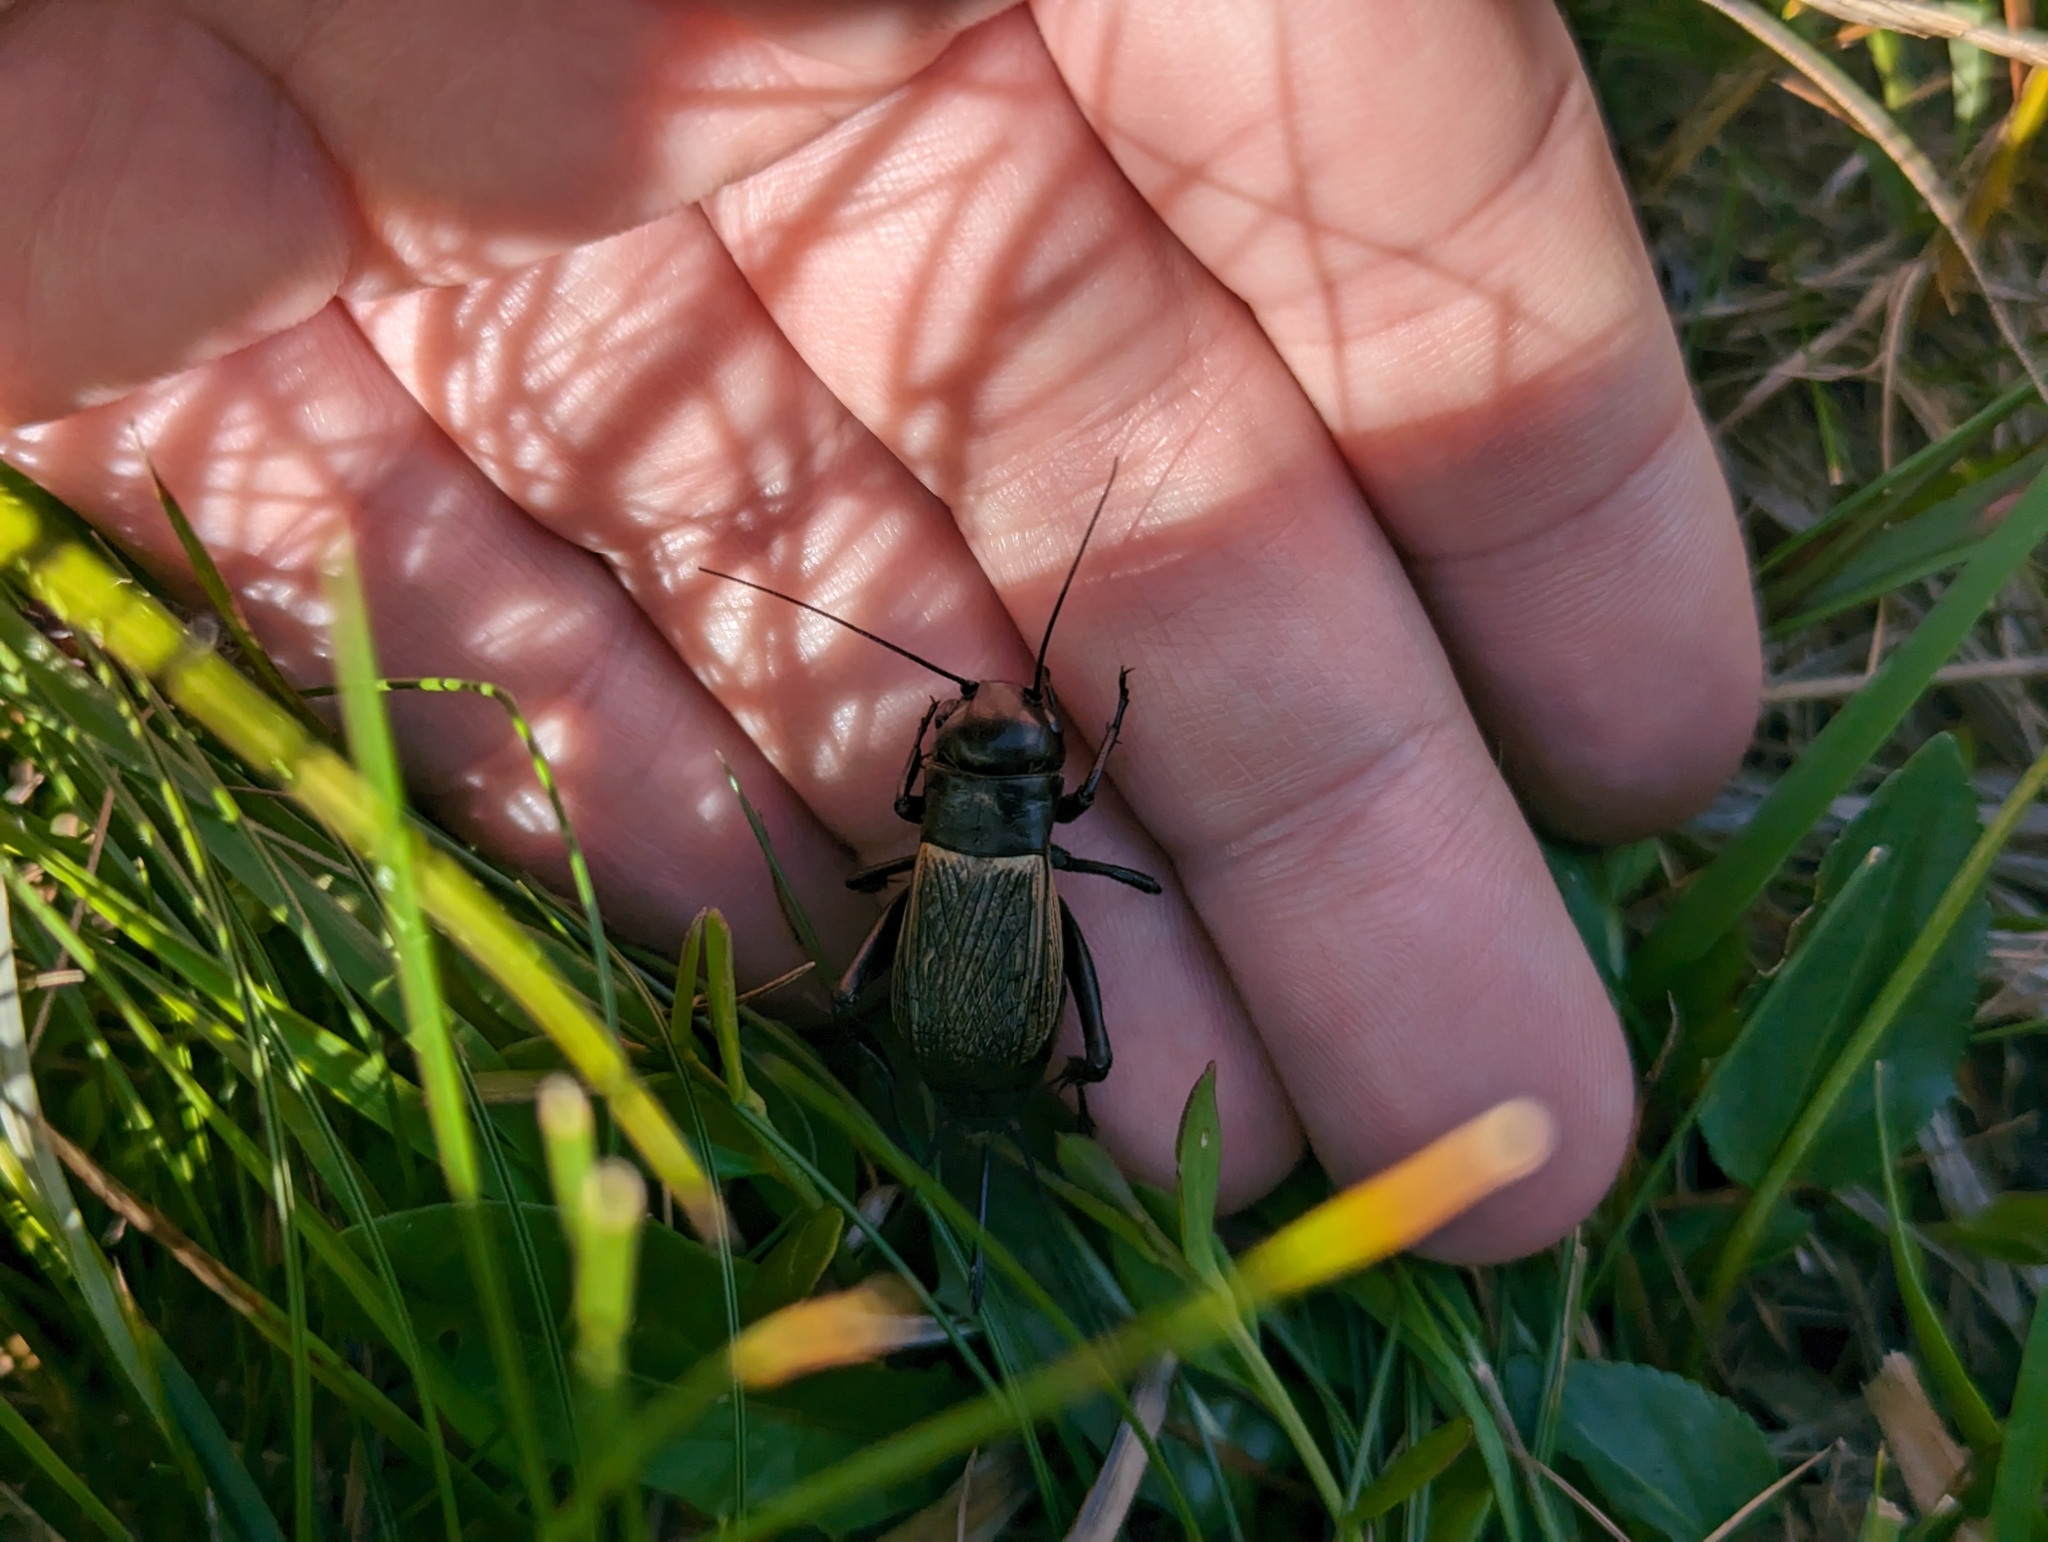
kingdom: Animalia
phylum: Arthropoda
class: Insecta
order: Orthoptera
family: Gryllidae
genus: Gryllus
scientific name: Gryllus campestris
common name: Field cricket
